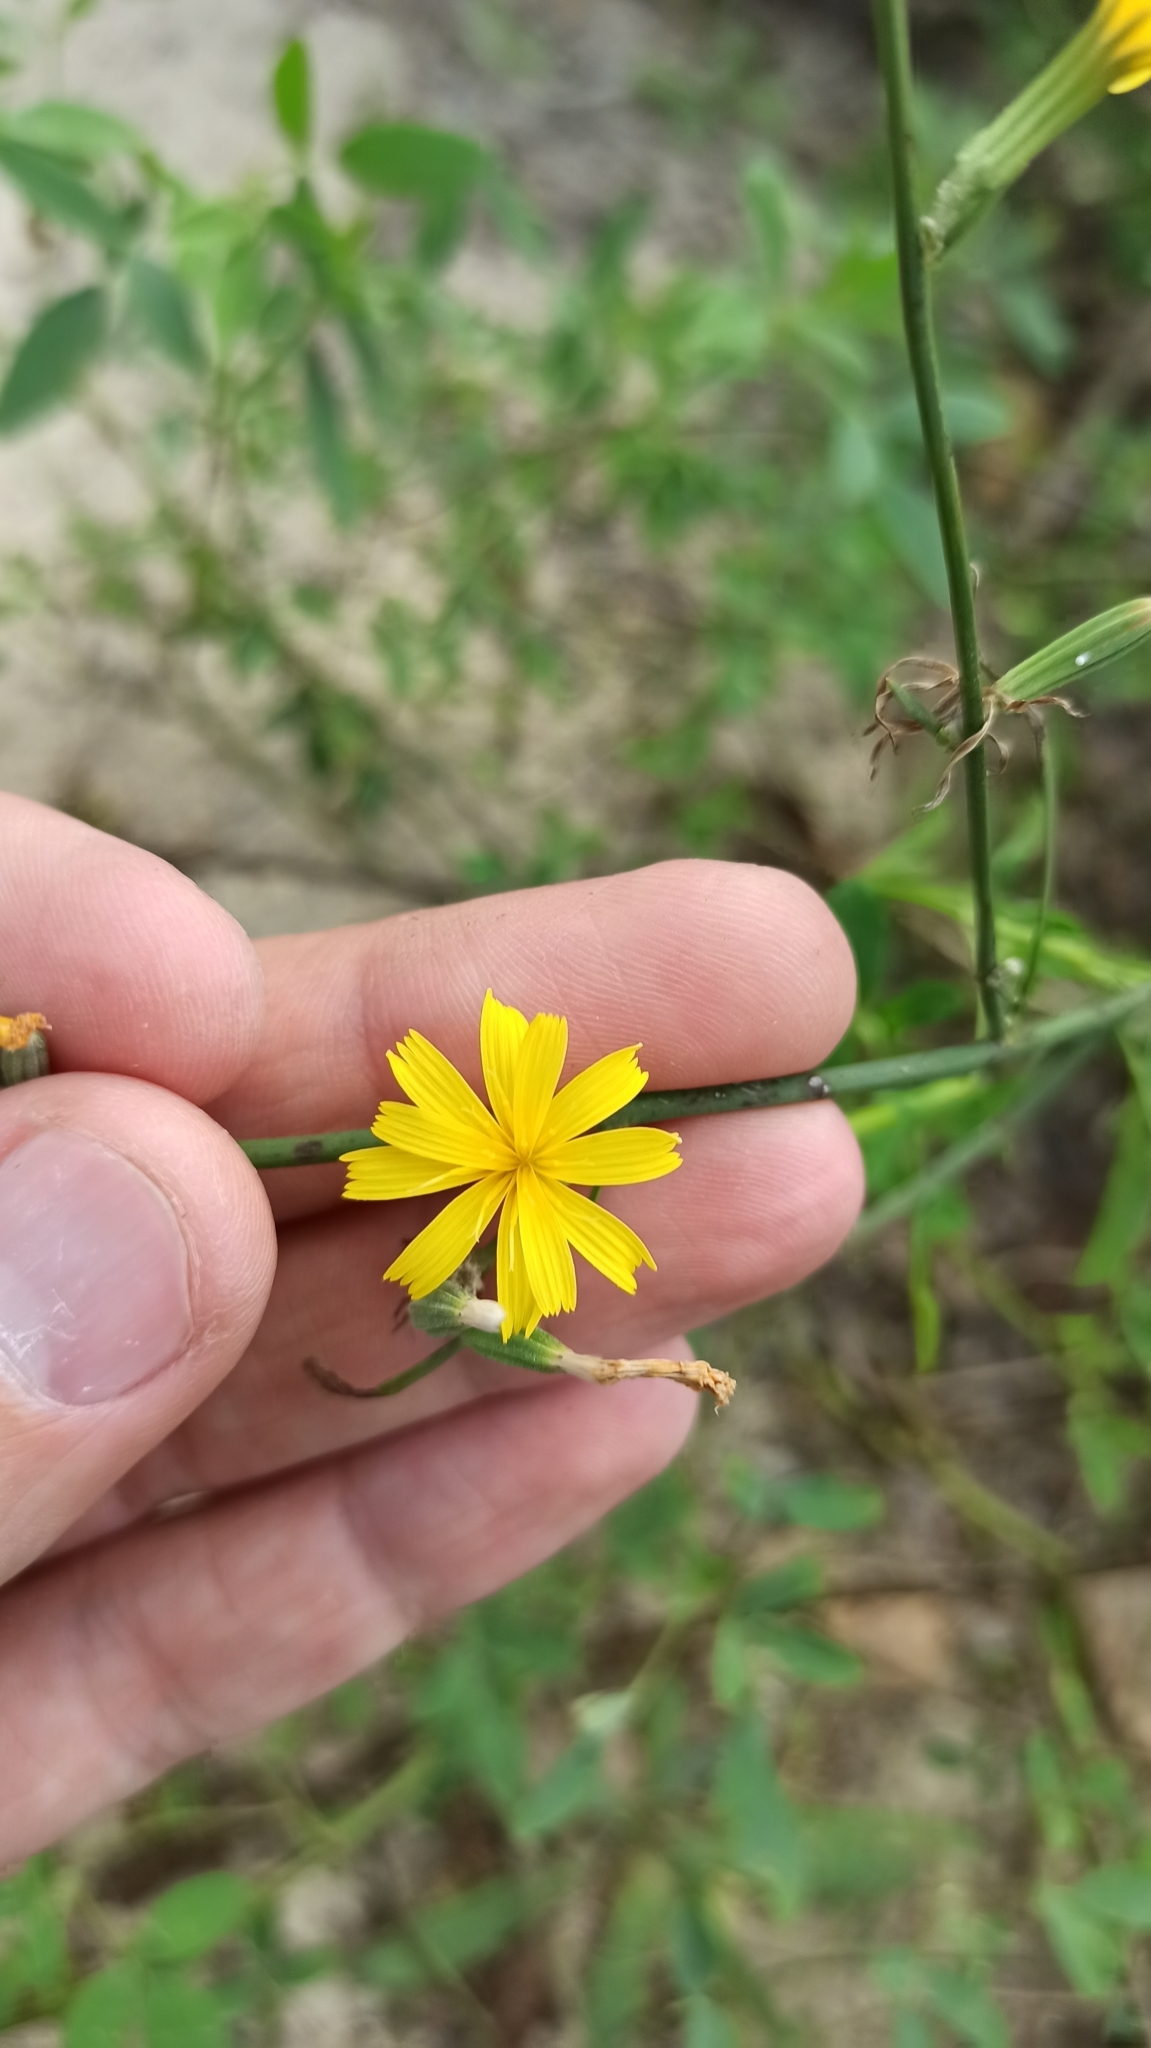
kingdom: Plantae
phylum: Tracheophyta
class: Magnoliopsida
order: Asterales
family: Asteraceae
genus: Chondrilla
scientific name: Chondrilla juncea
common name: Skeleton weed
